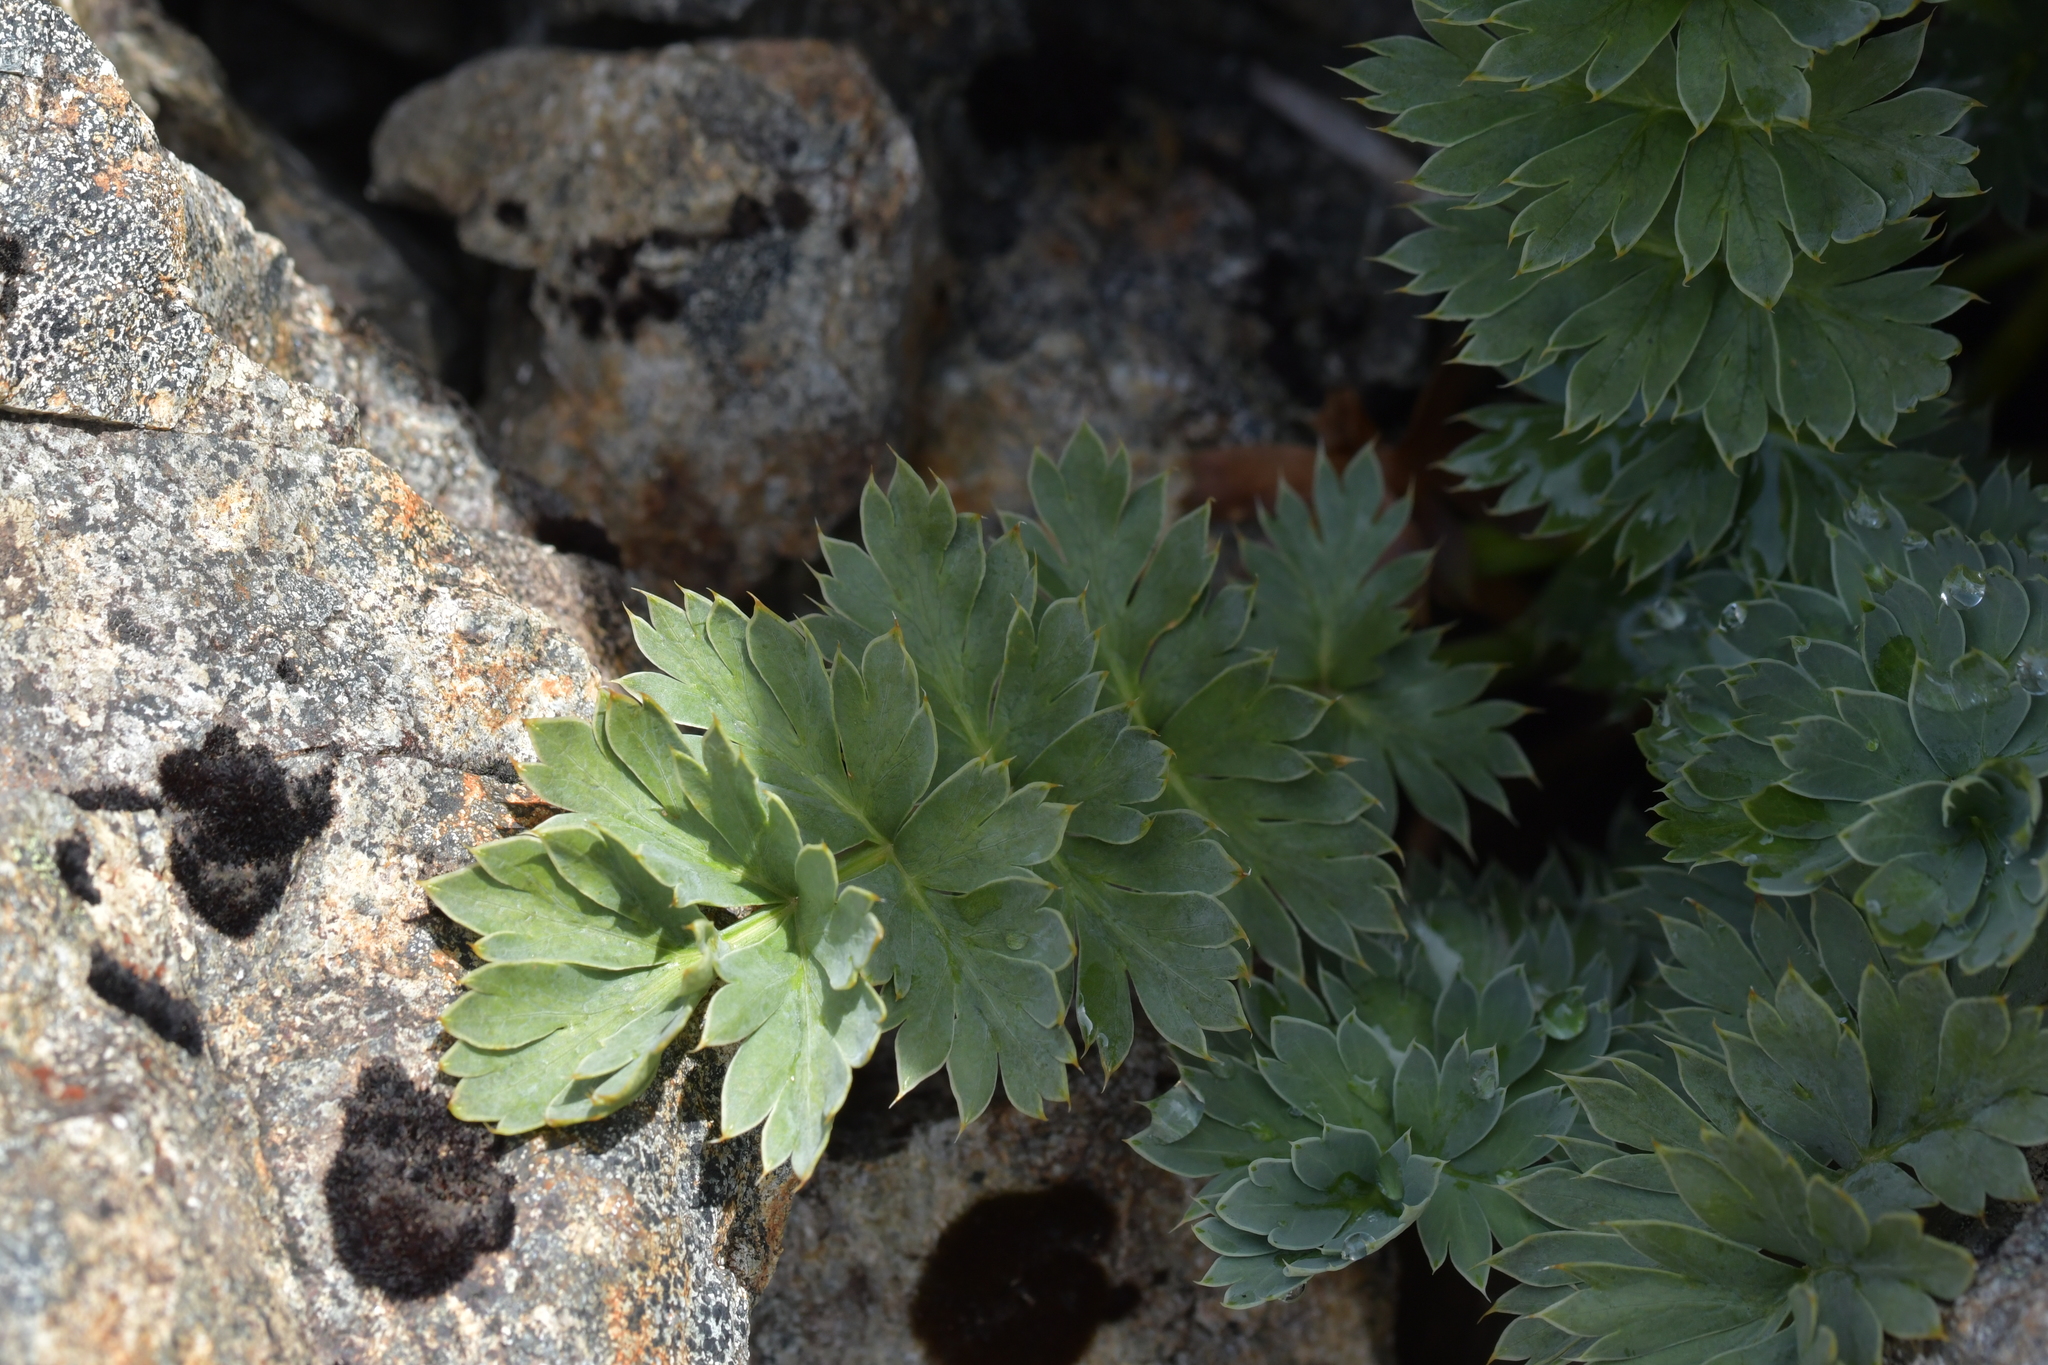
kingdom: Plantae
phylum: Tracheophyta
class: Magnoliopsida
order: Apiales
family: Apiaceae
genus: Anisotome
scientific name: Anisotome pilifera
